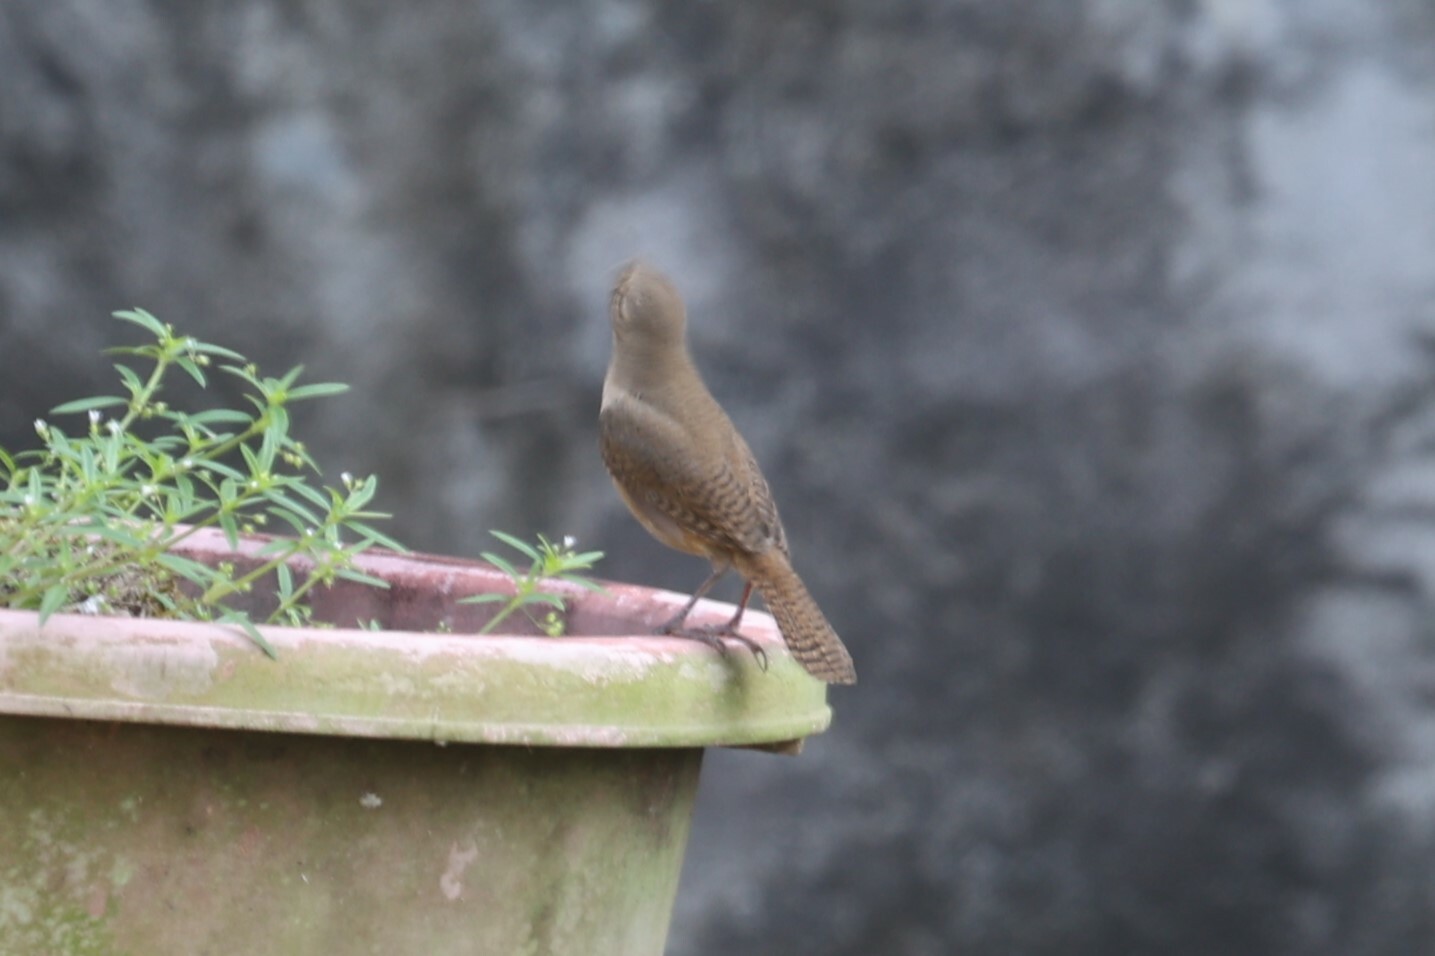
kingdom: Animalia
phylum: Chordata
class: Aves
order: Passeriformes
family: Troglodytidae
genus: Troglodytes
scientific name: Troglodytes aedon
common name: House wren
